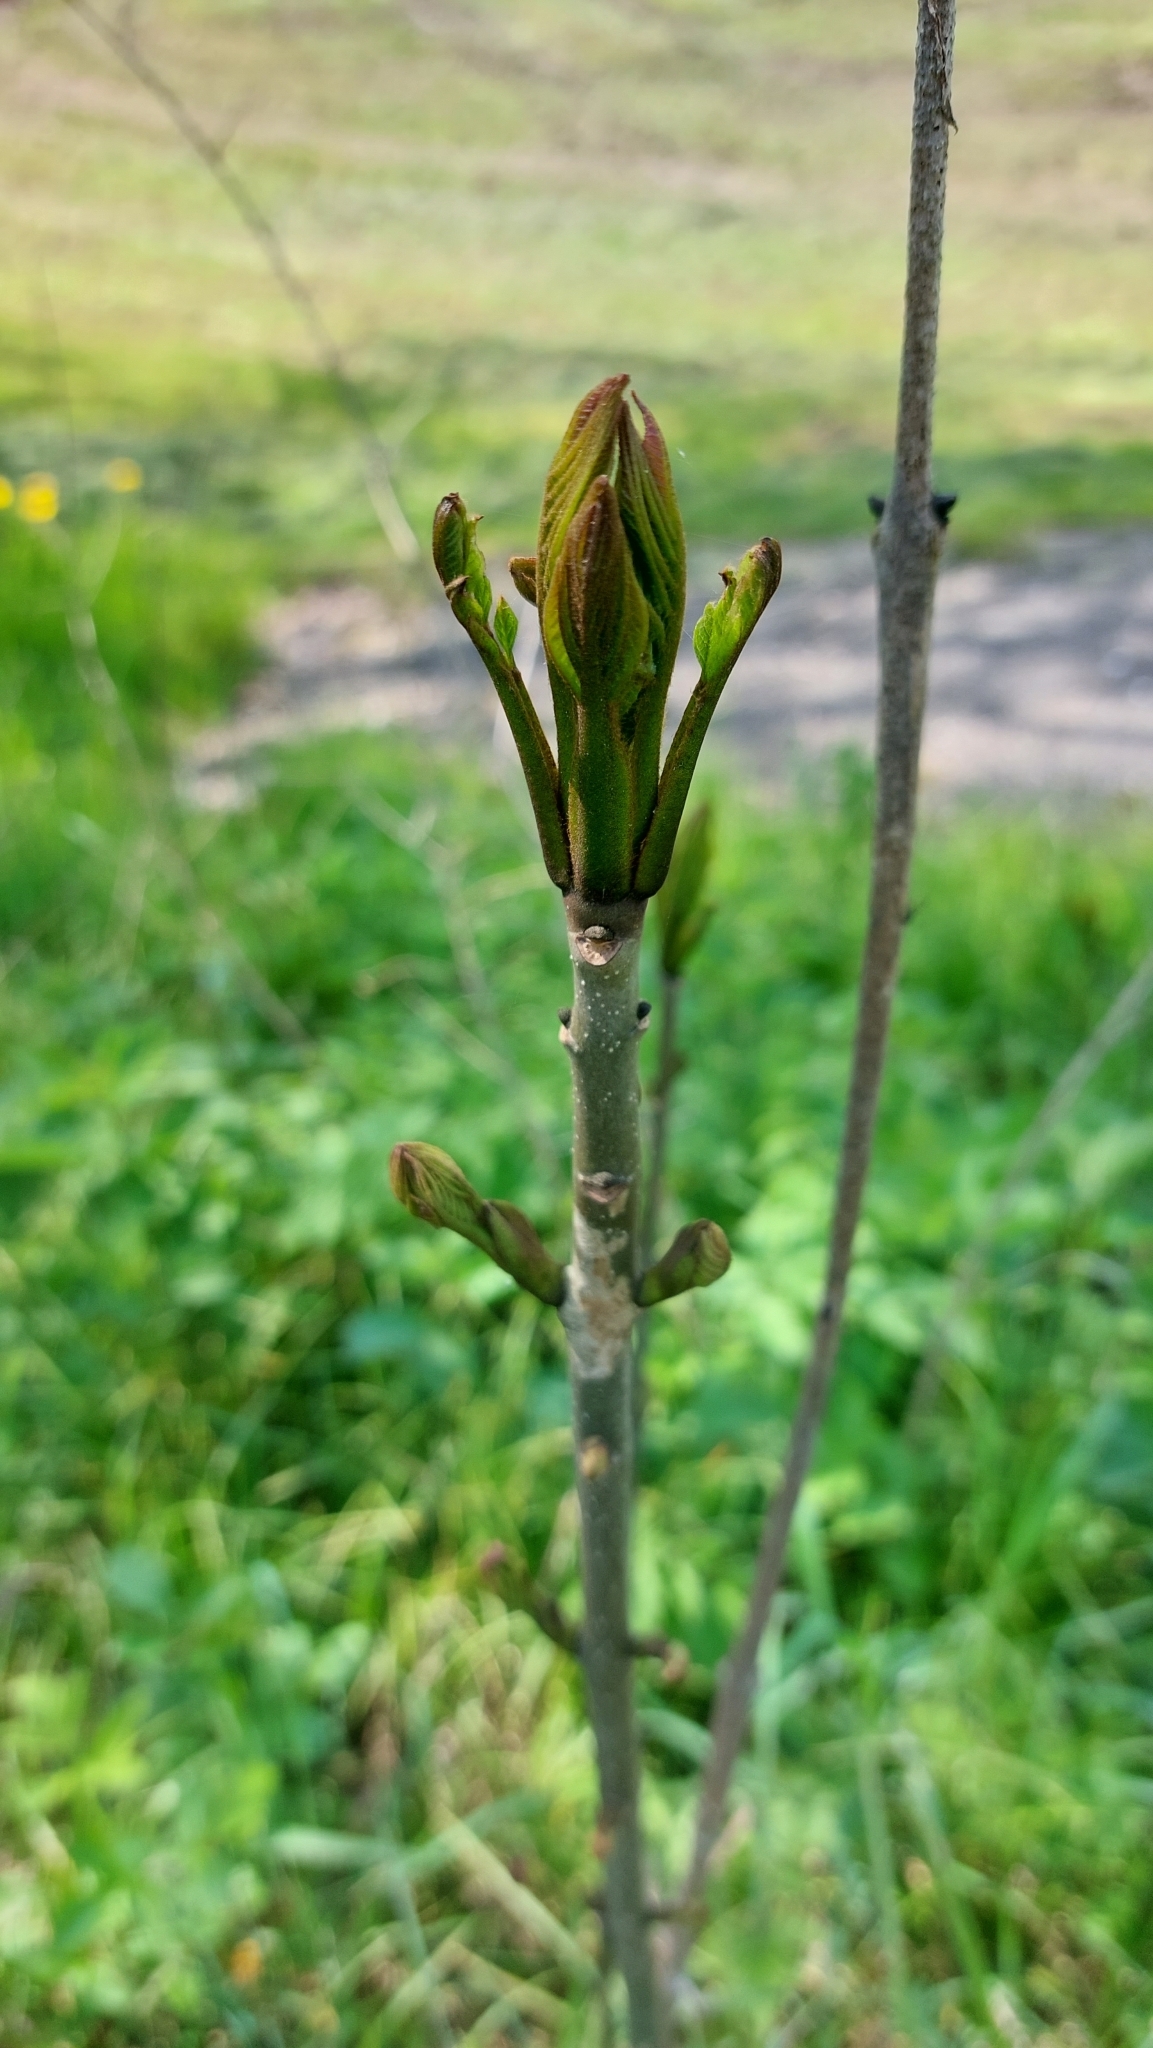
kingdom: Plantae
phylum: Tracheophyta
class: Magnoliopsida
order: Lamiales
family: Oleaceae
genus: Fraxinus
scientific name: Fraxinus excelsior
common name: European ash
